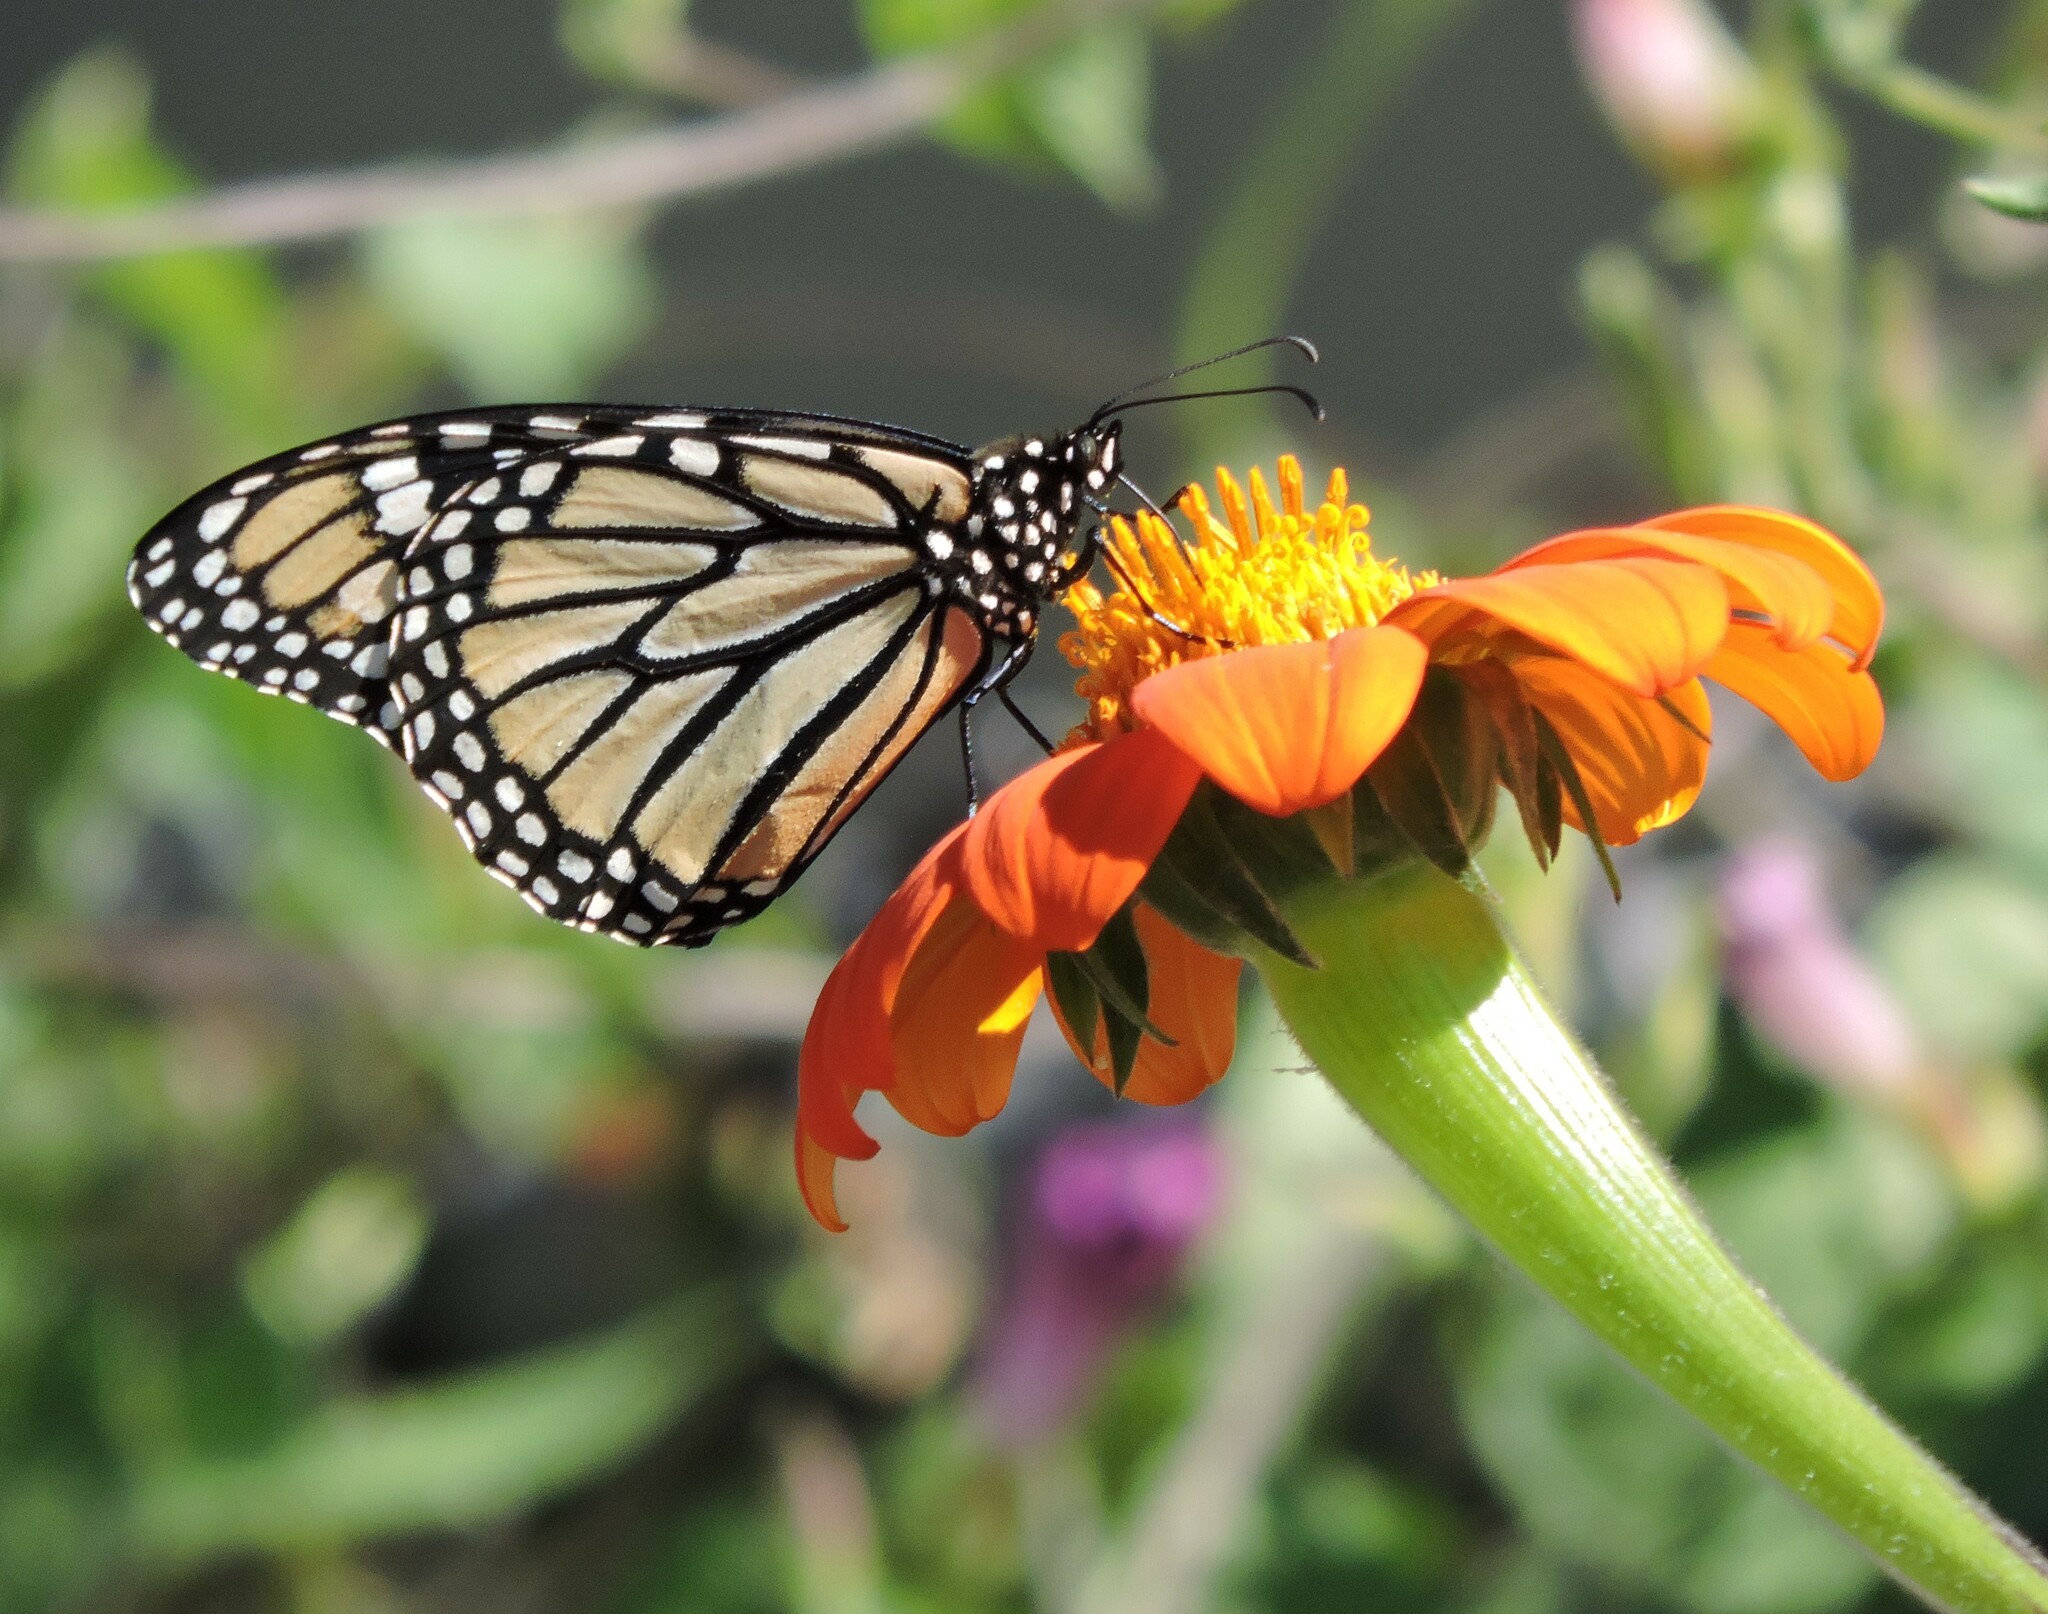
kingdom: Animalia
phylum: Arthropoda
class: Insecta
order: Lepidoptera
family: Nymphalidae
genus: Danaus
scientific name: Danaus plexippus
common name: Monarch
